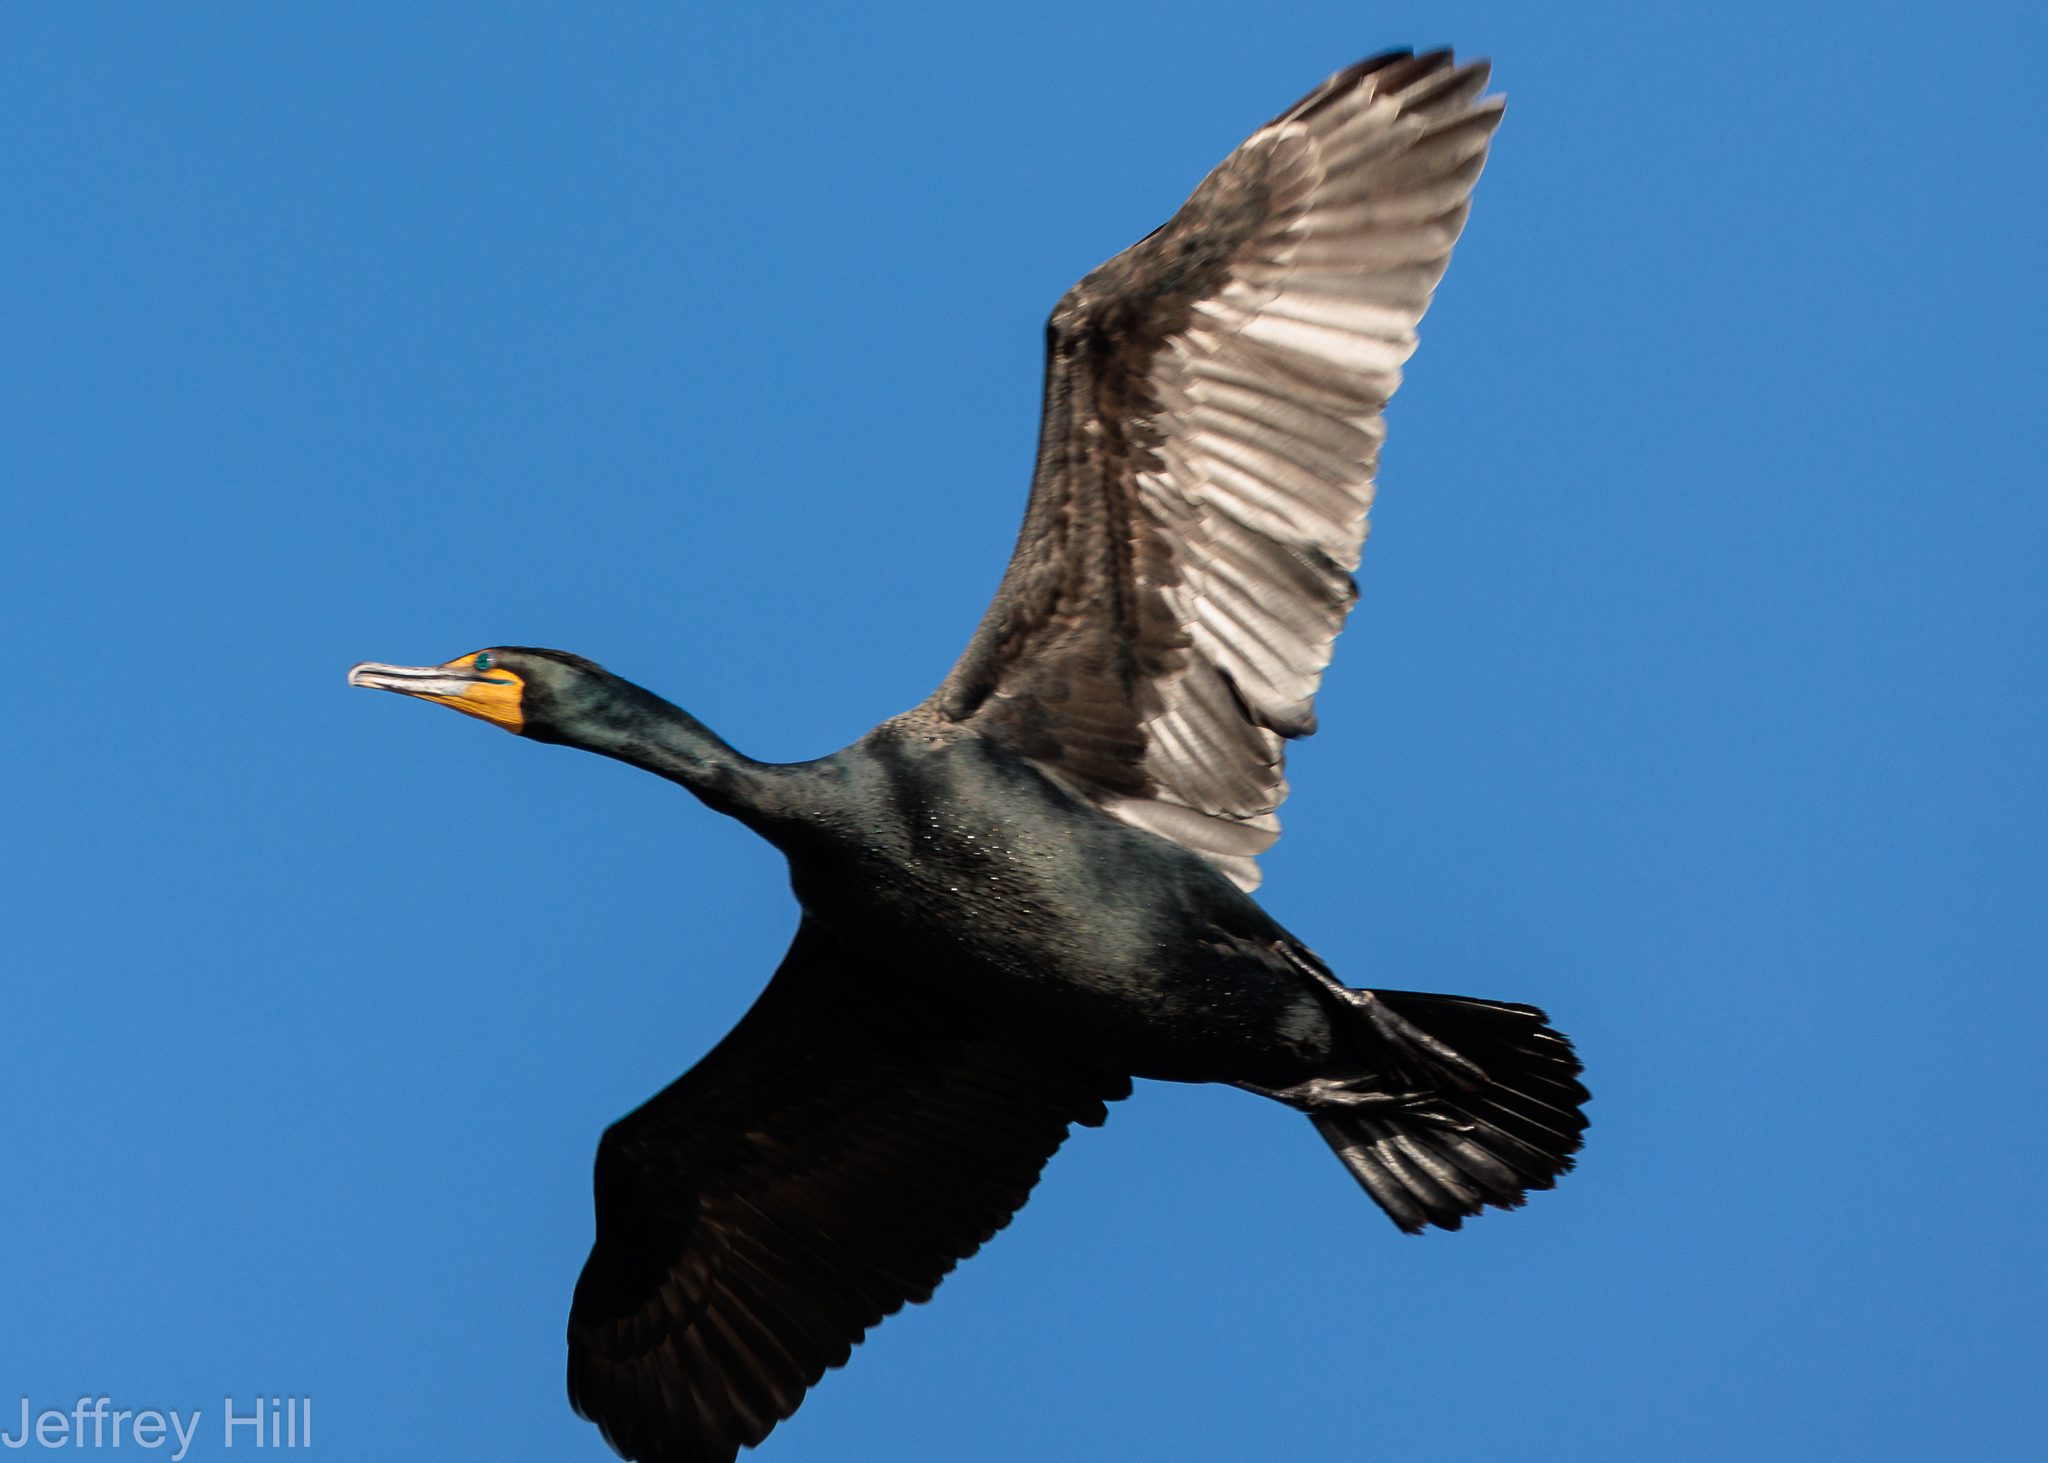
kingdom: Animalia
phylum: Chordata
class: Aves
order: Suliformes
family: Phalacrocoracidae
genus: Phalacrocorax
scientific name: Phalacrocorax auritus
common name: Double-crested cormorant
